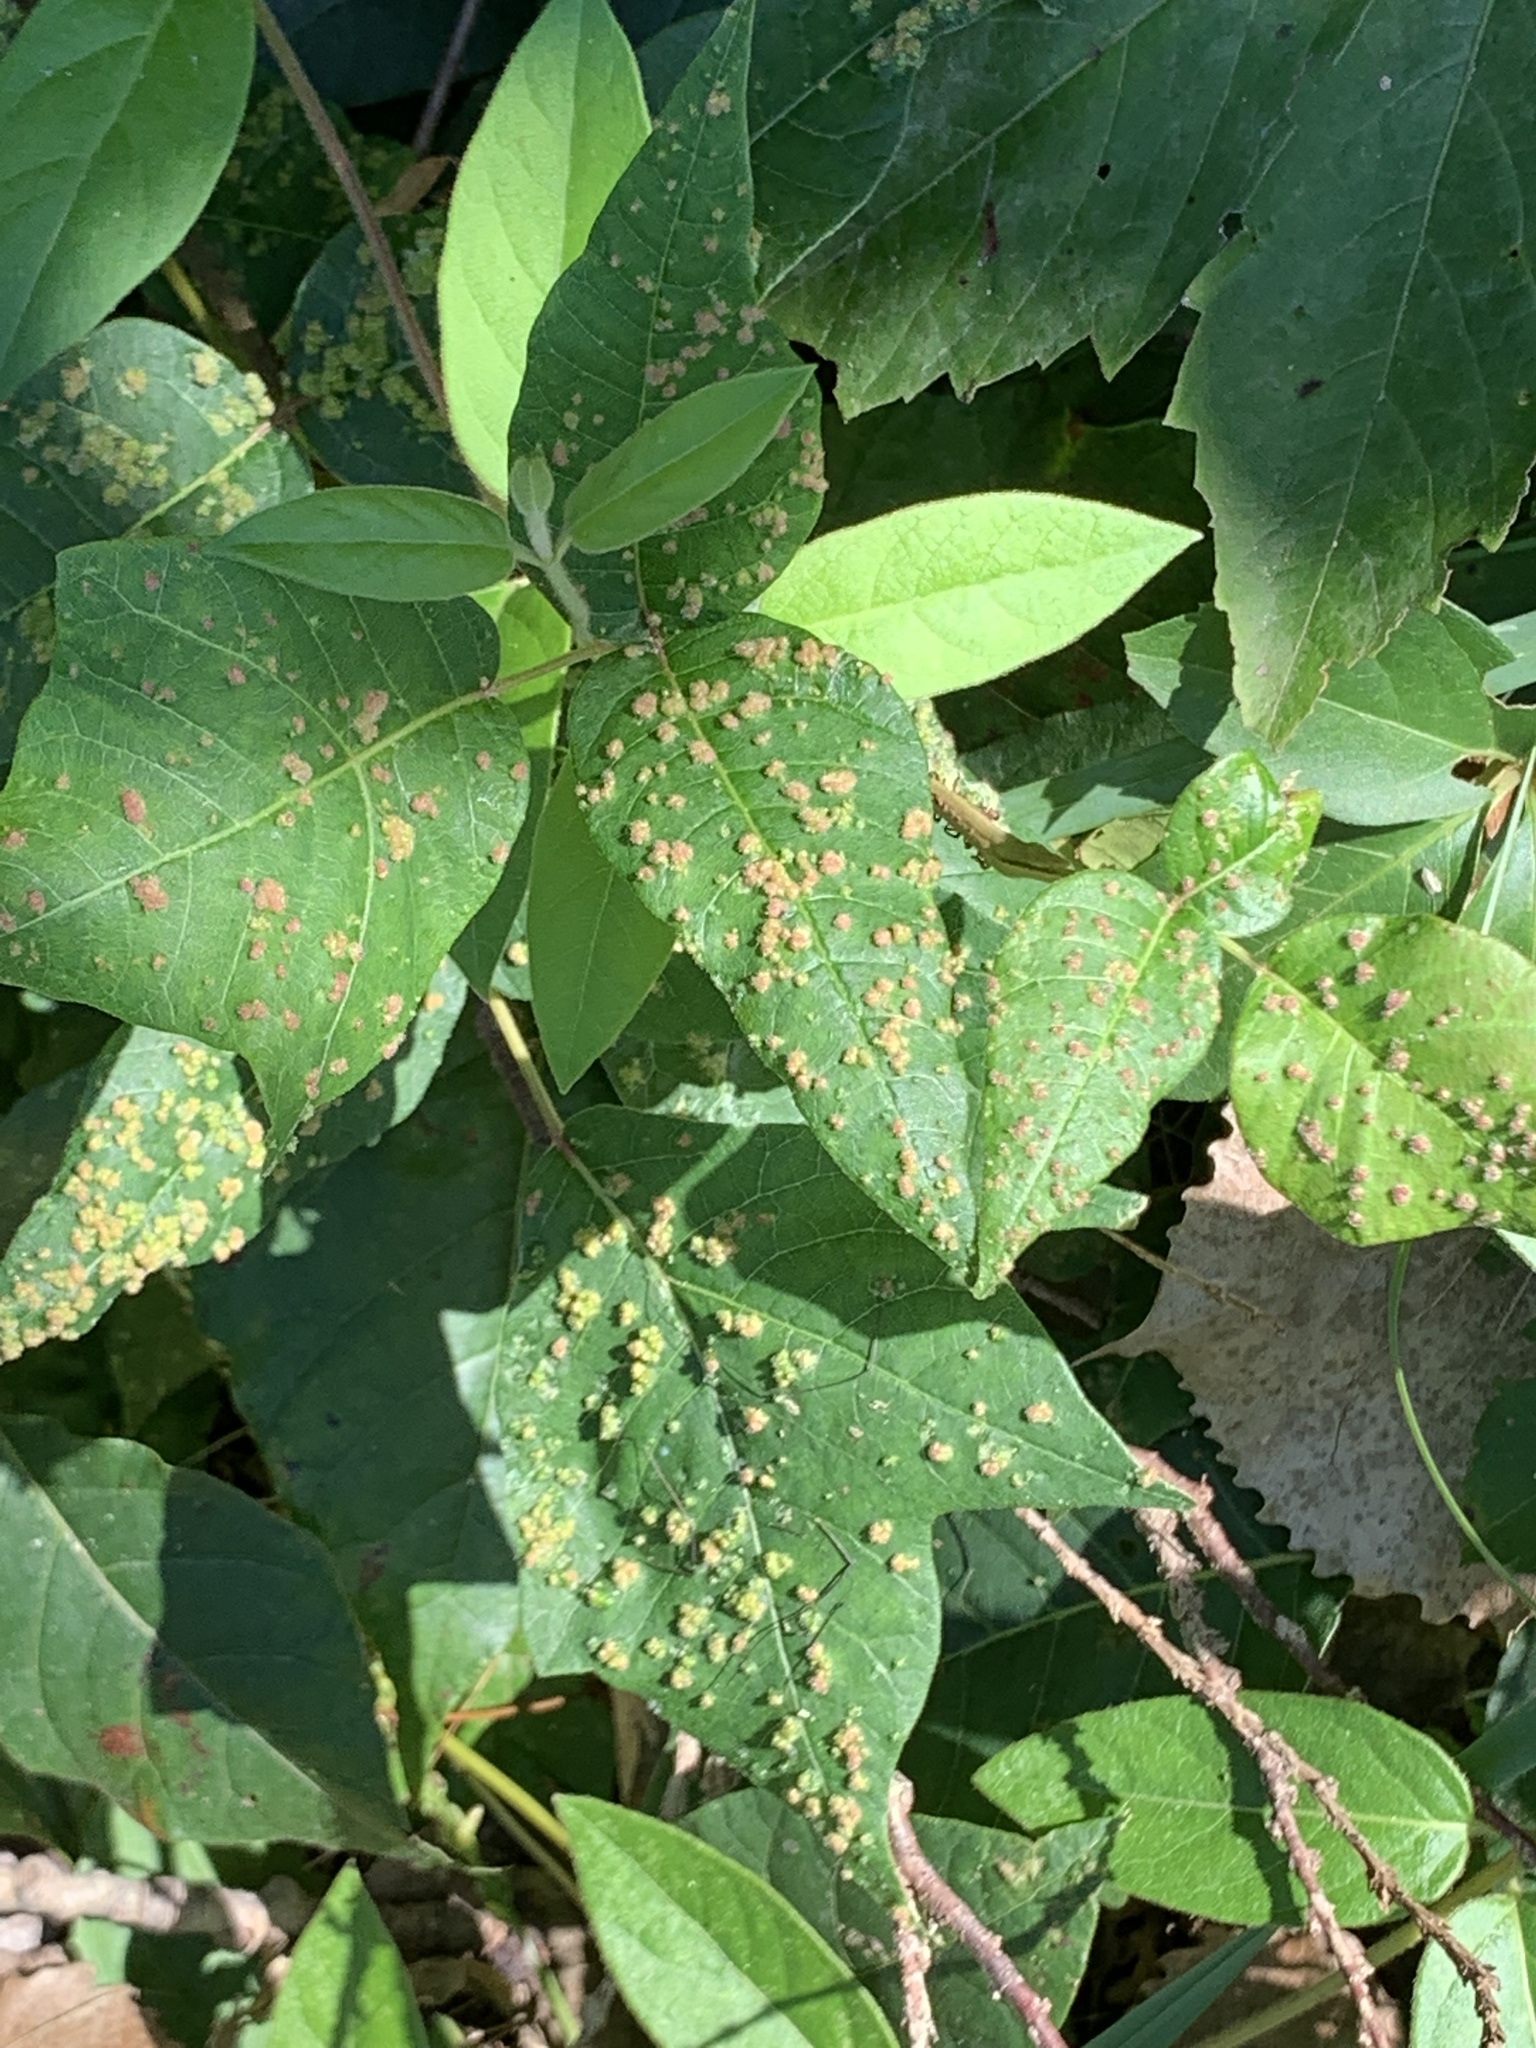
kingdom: Animalia
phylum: Arthropoda
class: Arachnida
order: Trombidiformes
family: Eriophyidae
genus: Aculops
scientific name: Aculops
